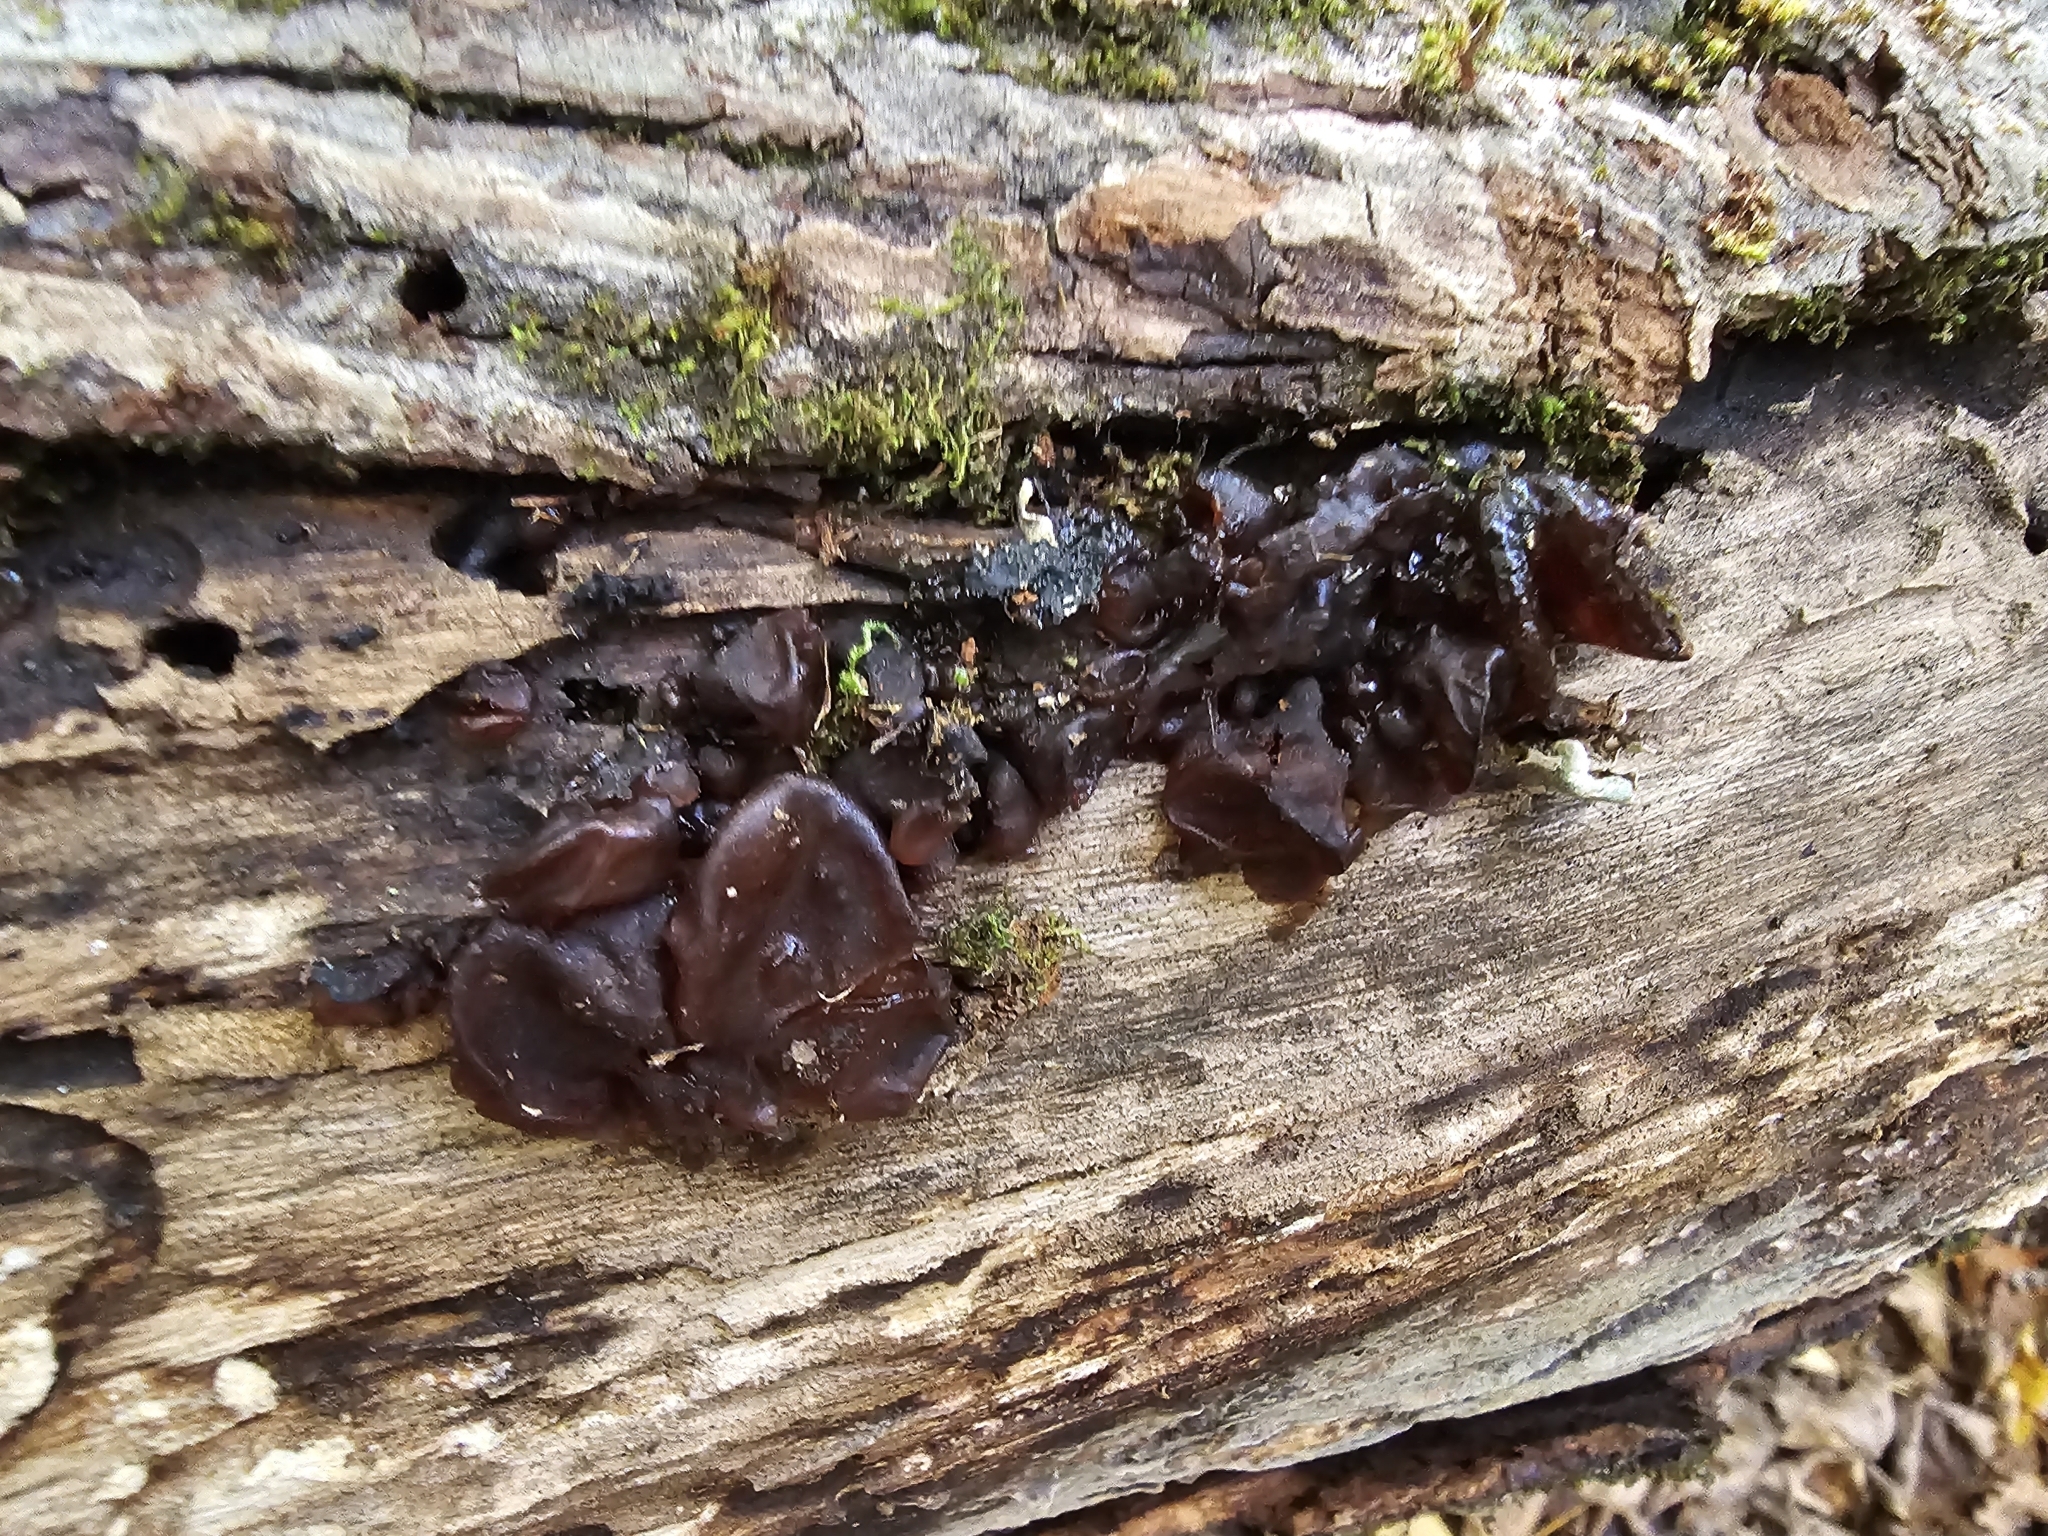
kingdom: Fungi
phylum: Basidiomycota
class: Agaricomycetes
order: Auriculariales
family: Auriculariaceae
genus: Exidia
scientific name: Exidia
